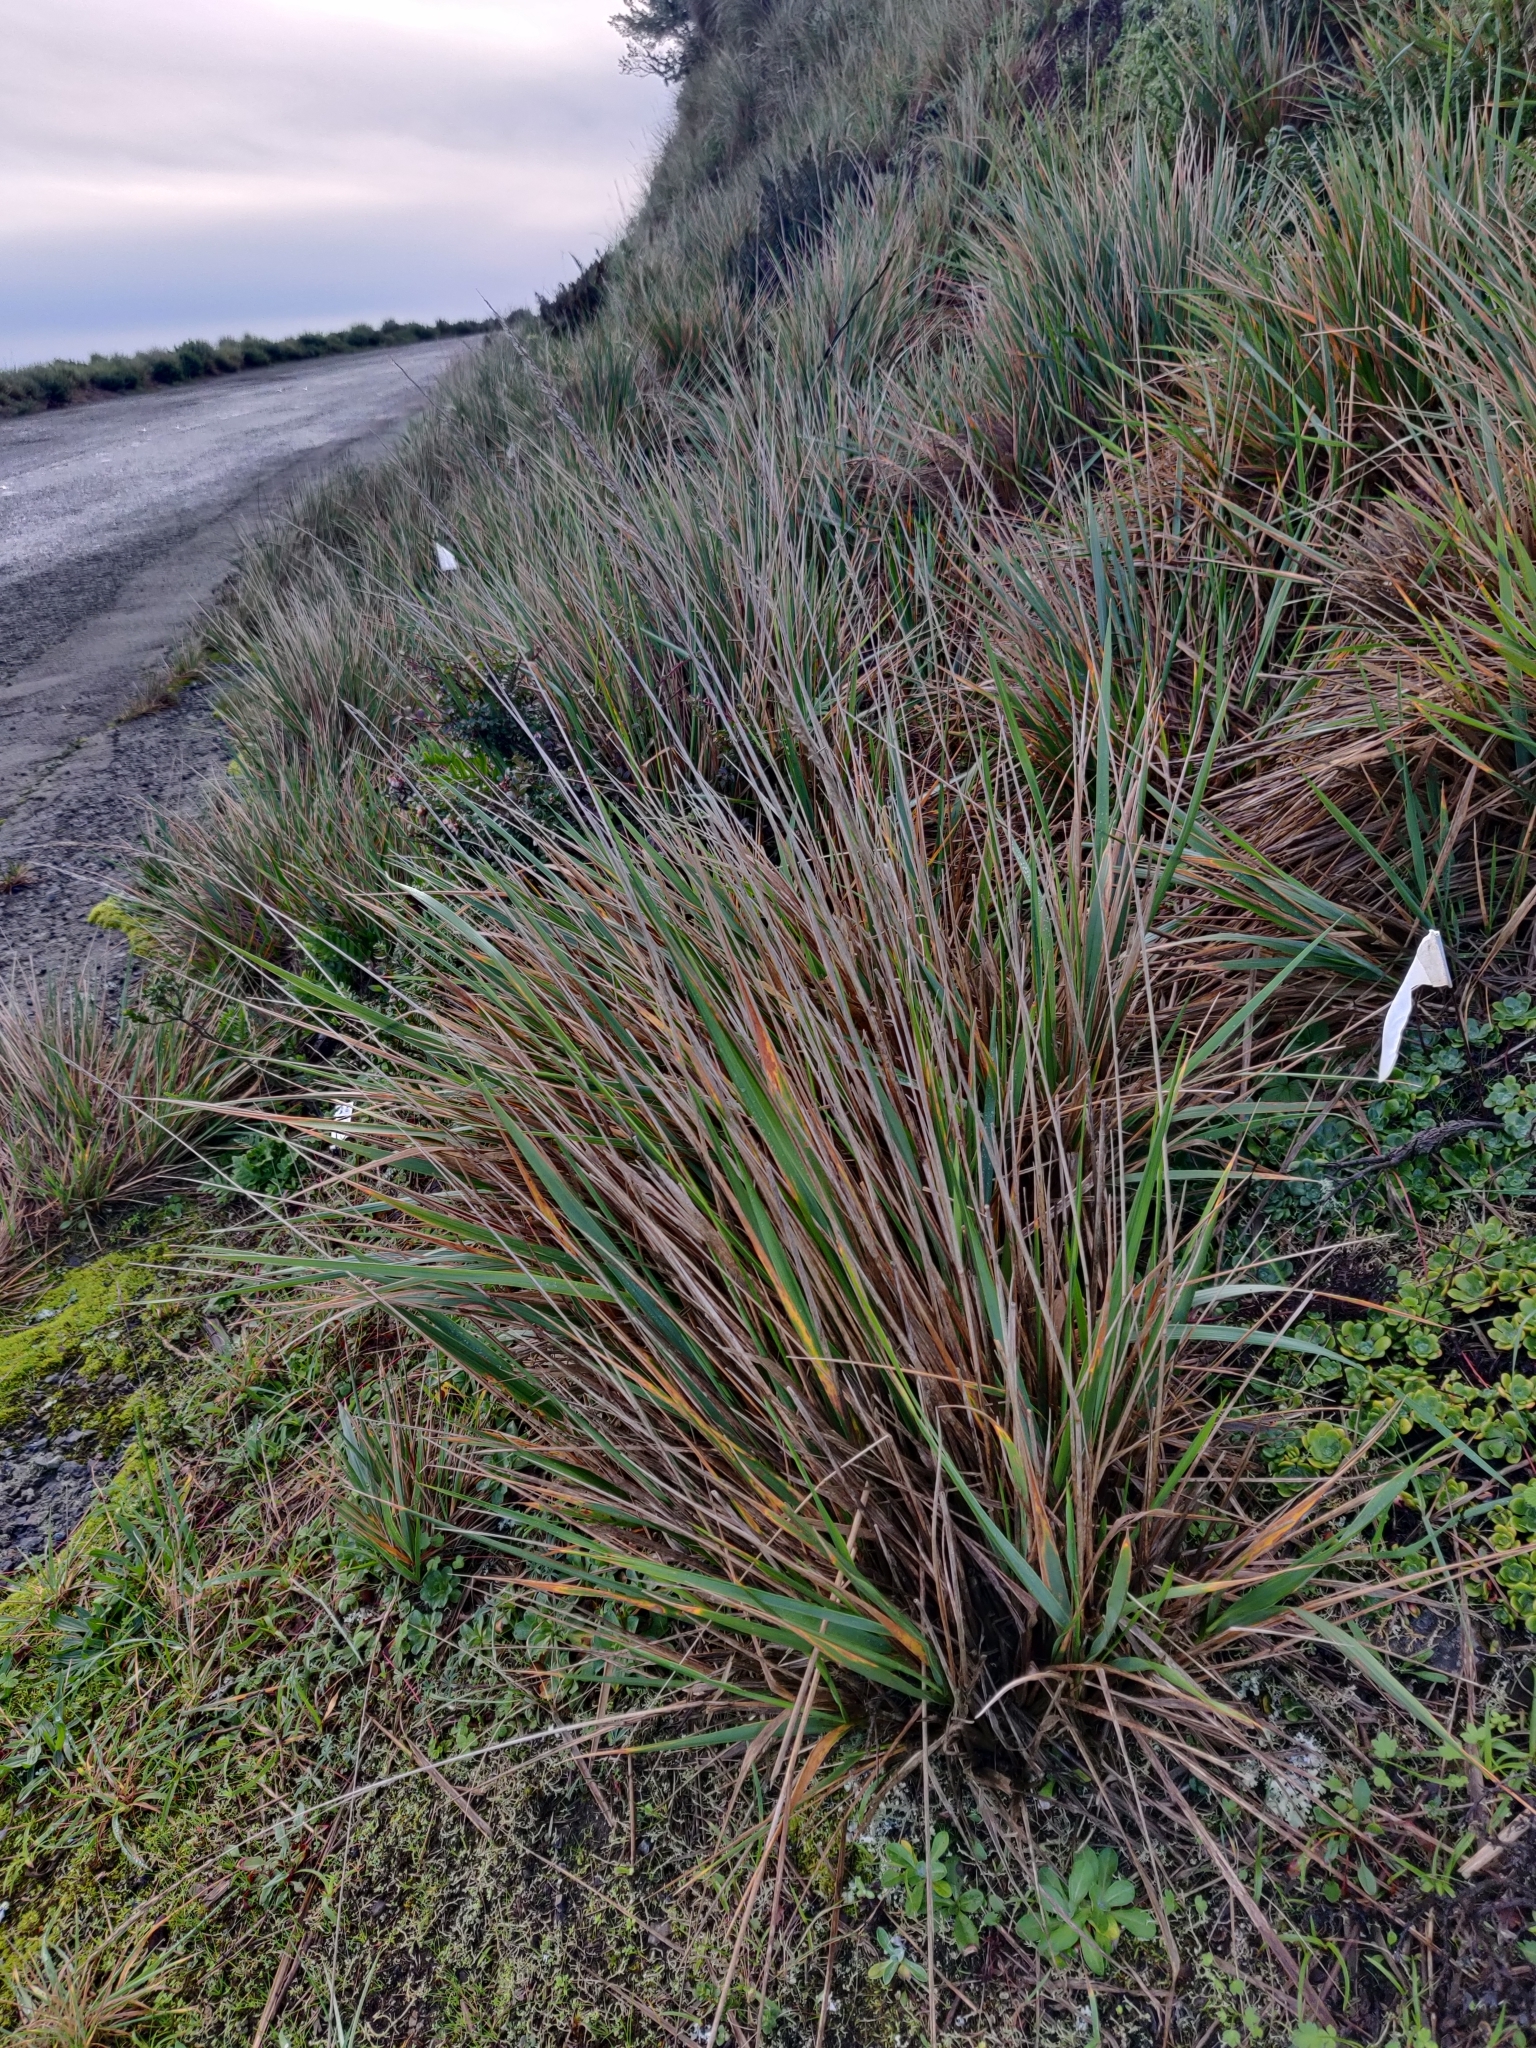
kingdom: Plantae
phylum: Tracheophyta
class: Liliopsida
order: Poales
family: Poaceae
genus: Calamagrostis
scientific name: Calamagrostis nutkaensis
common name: Pacific reed grass
